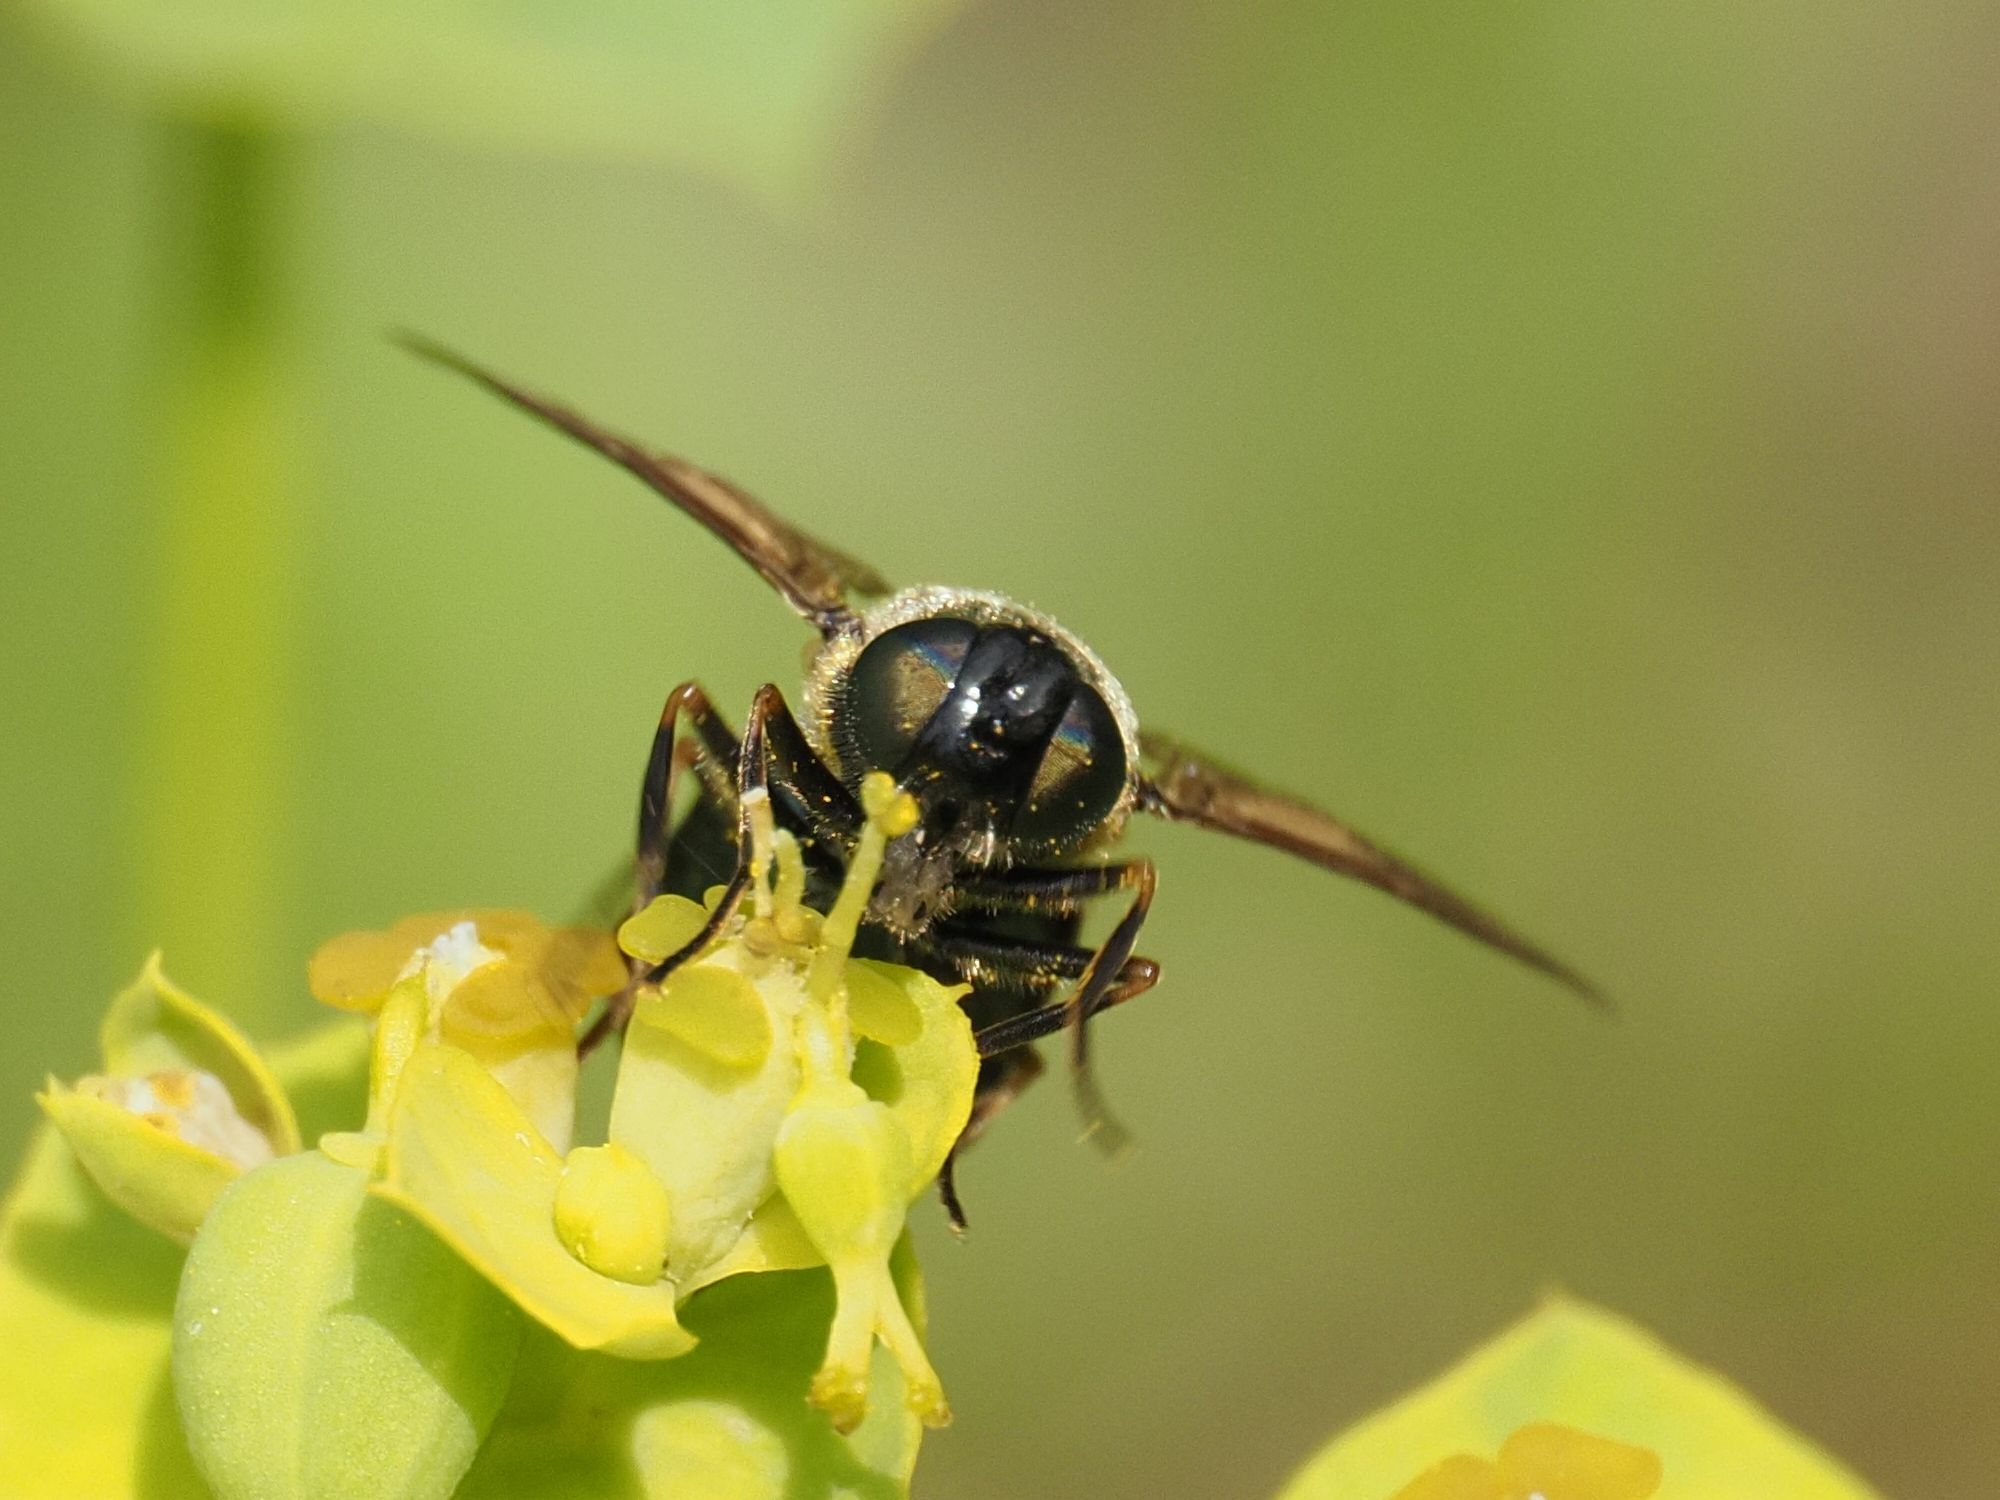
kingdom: Animalia
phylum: Arthropoda
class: Insecta
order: Diptera
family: Stratiomyidae
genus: Chloromyia
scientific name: Chloromyia formosa
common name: Soldier fly
